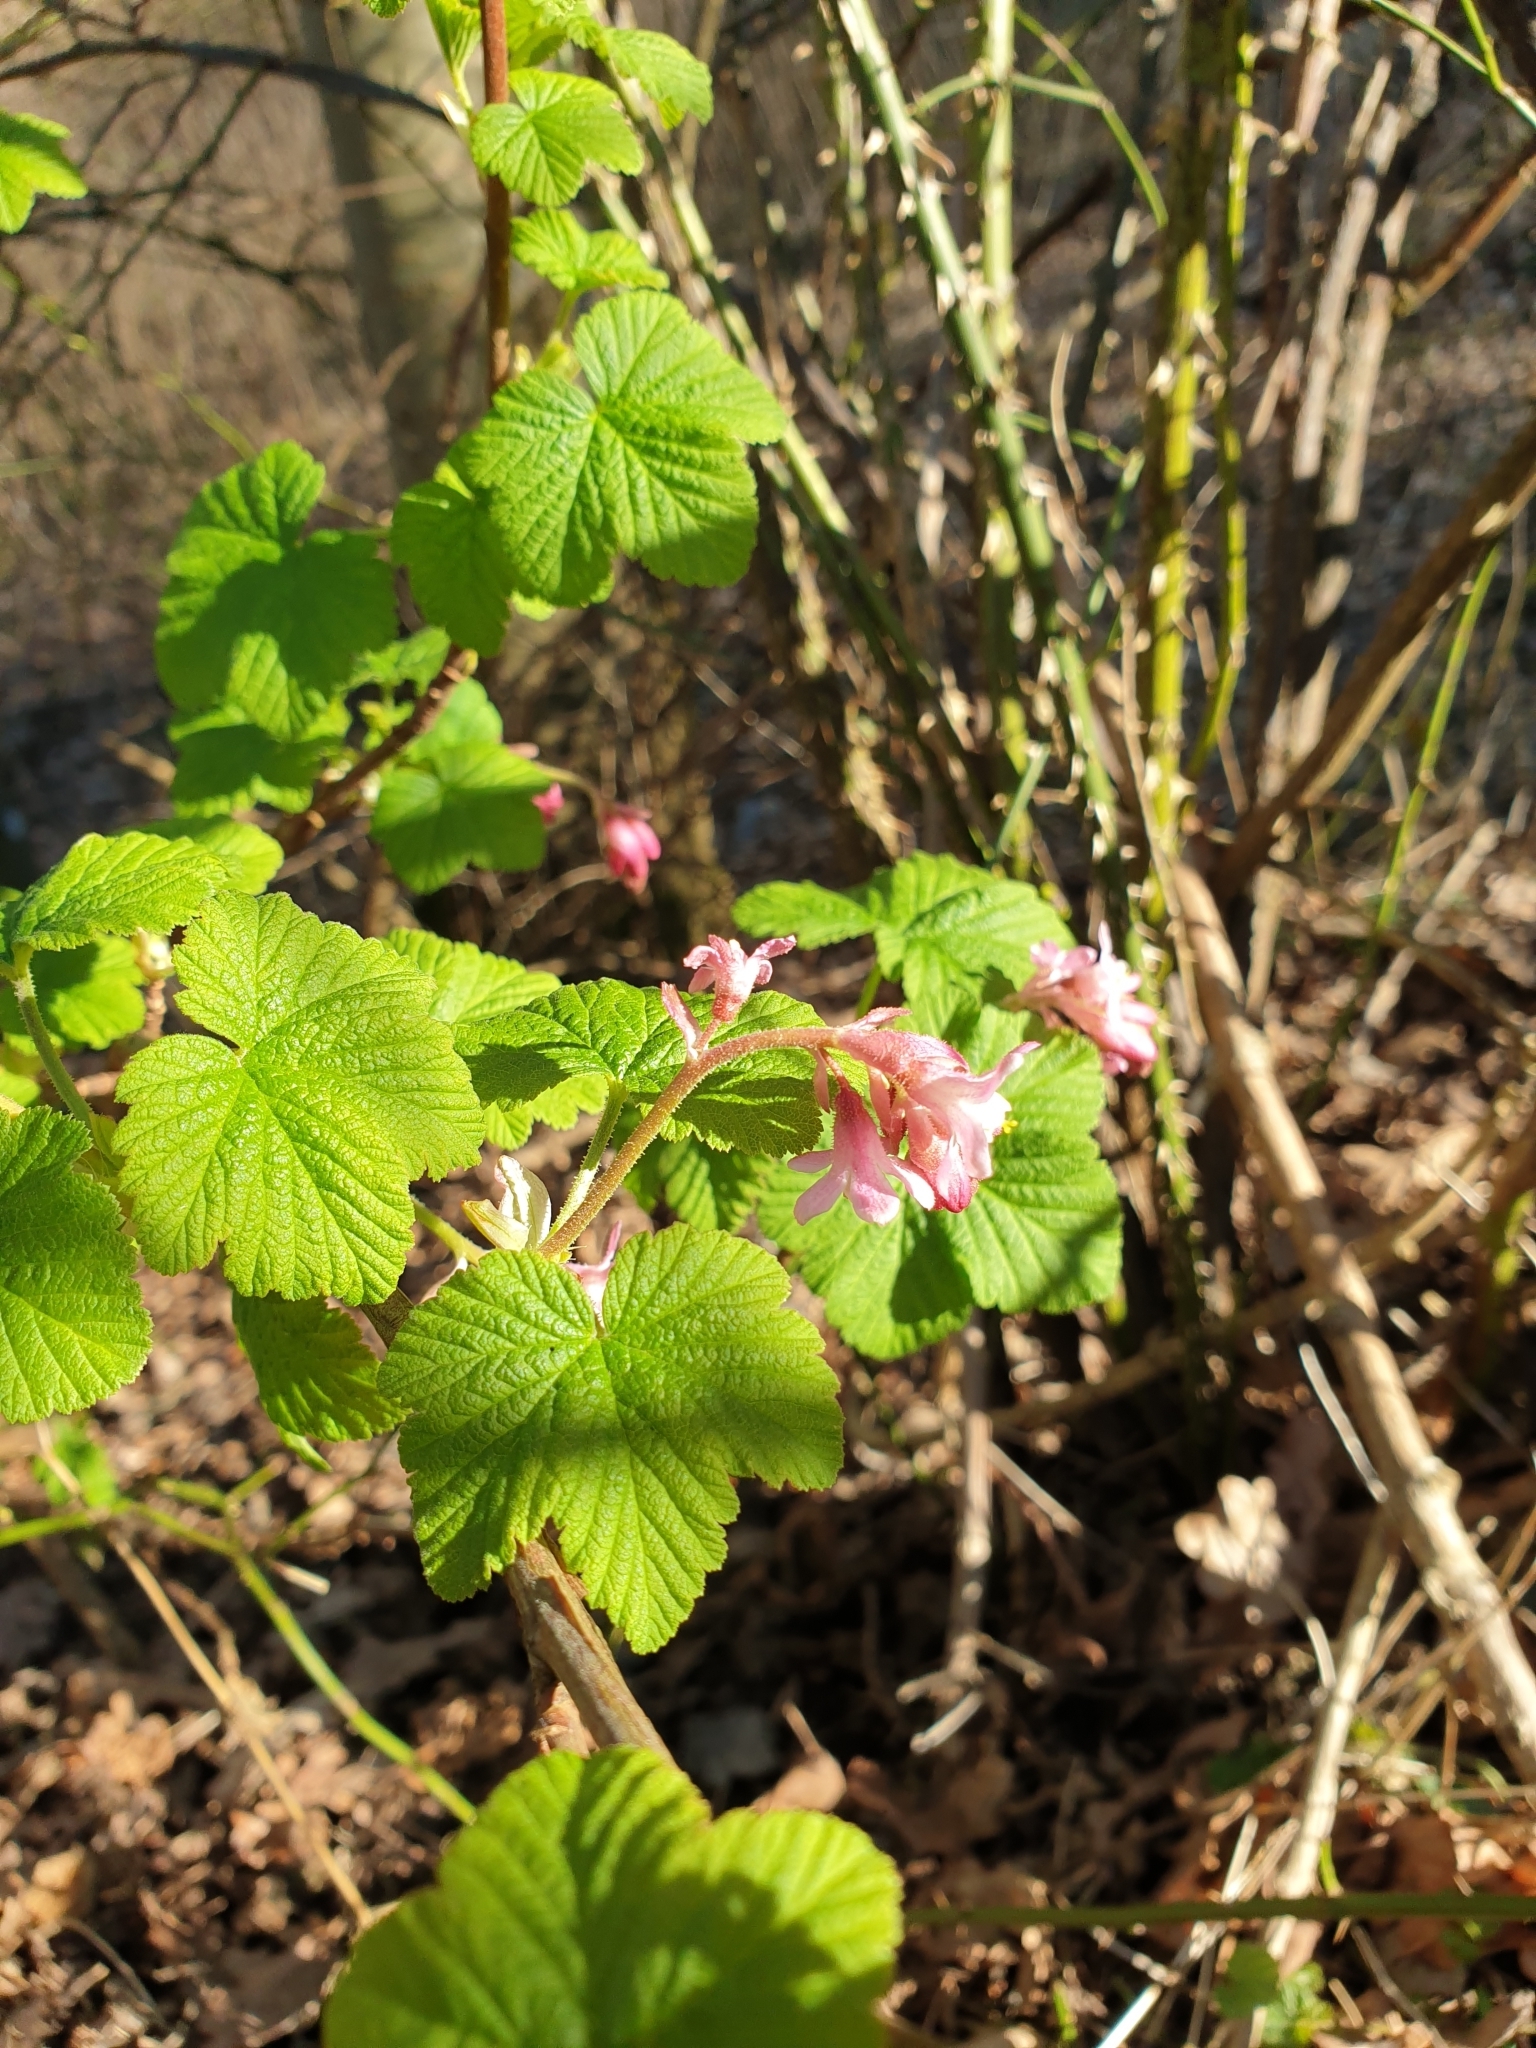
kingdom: Plantae
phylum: Tracheophyta
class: Magnoliopsida
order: Saxifragales
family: Grossulariaceae
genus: Ribes
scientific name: Ribes sanguineum
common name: Flowering currant
